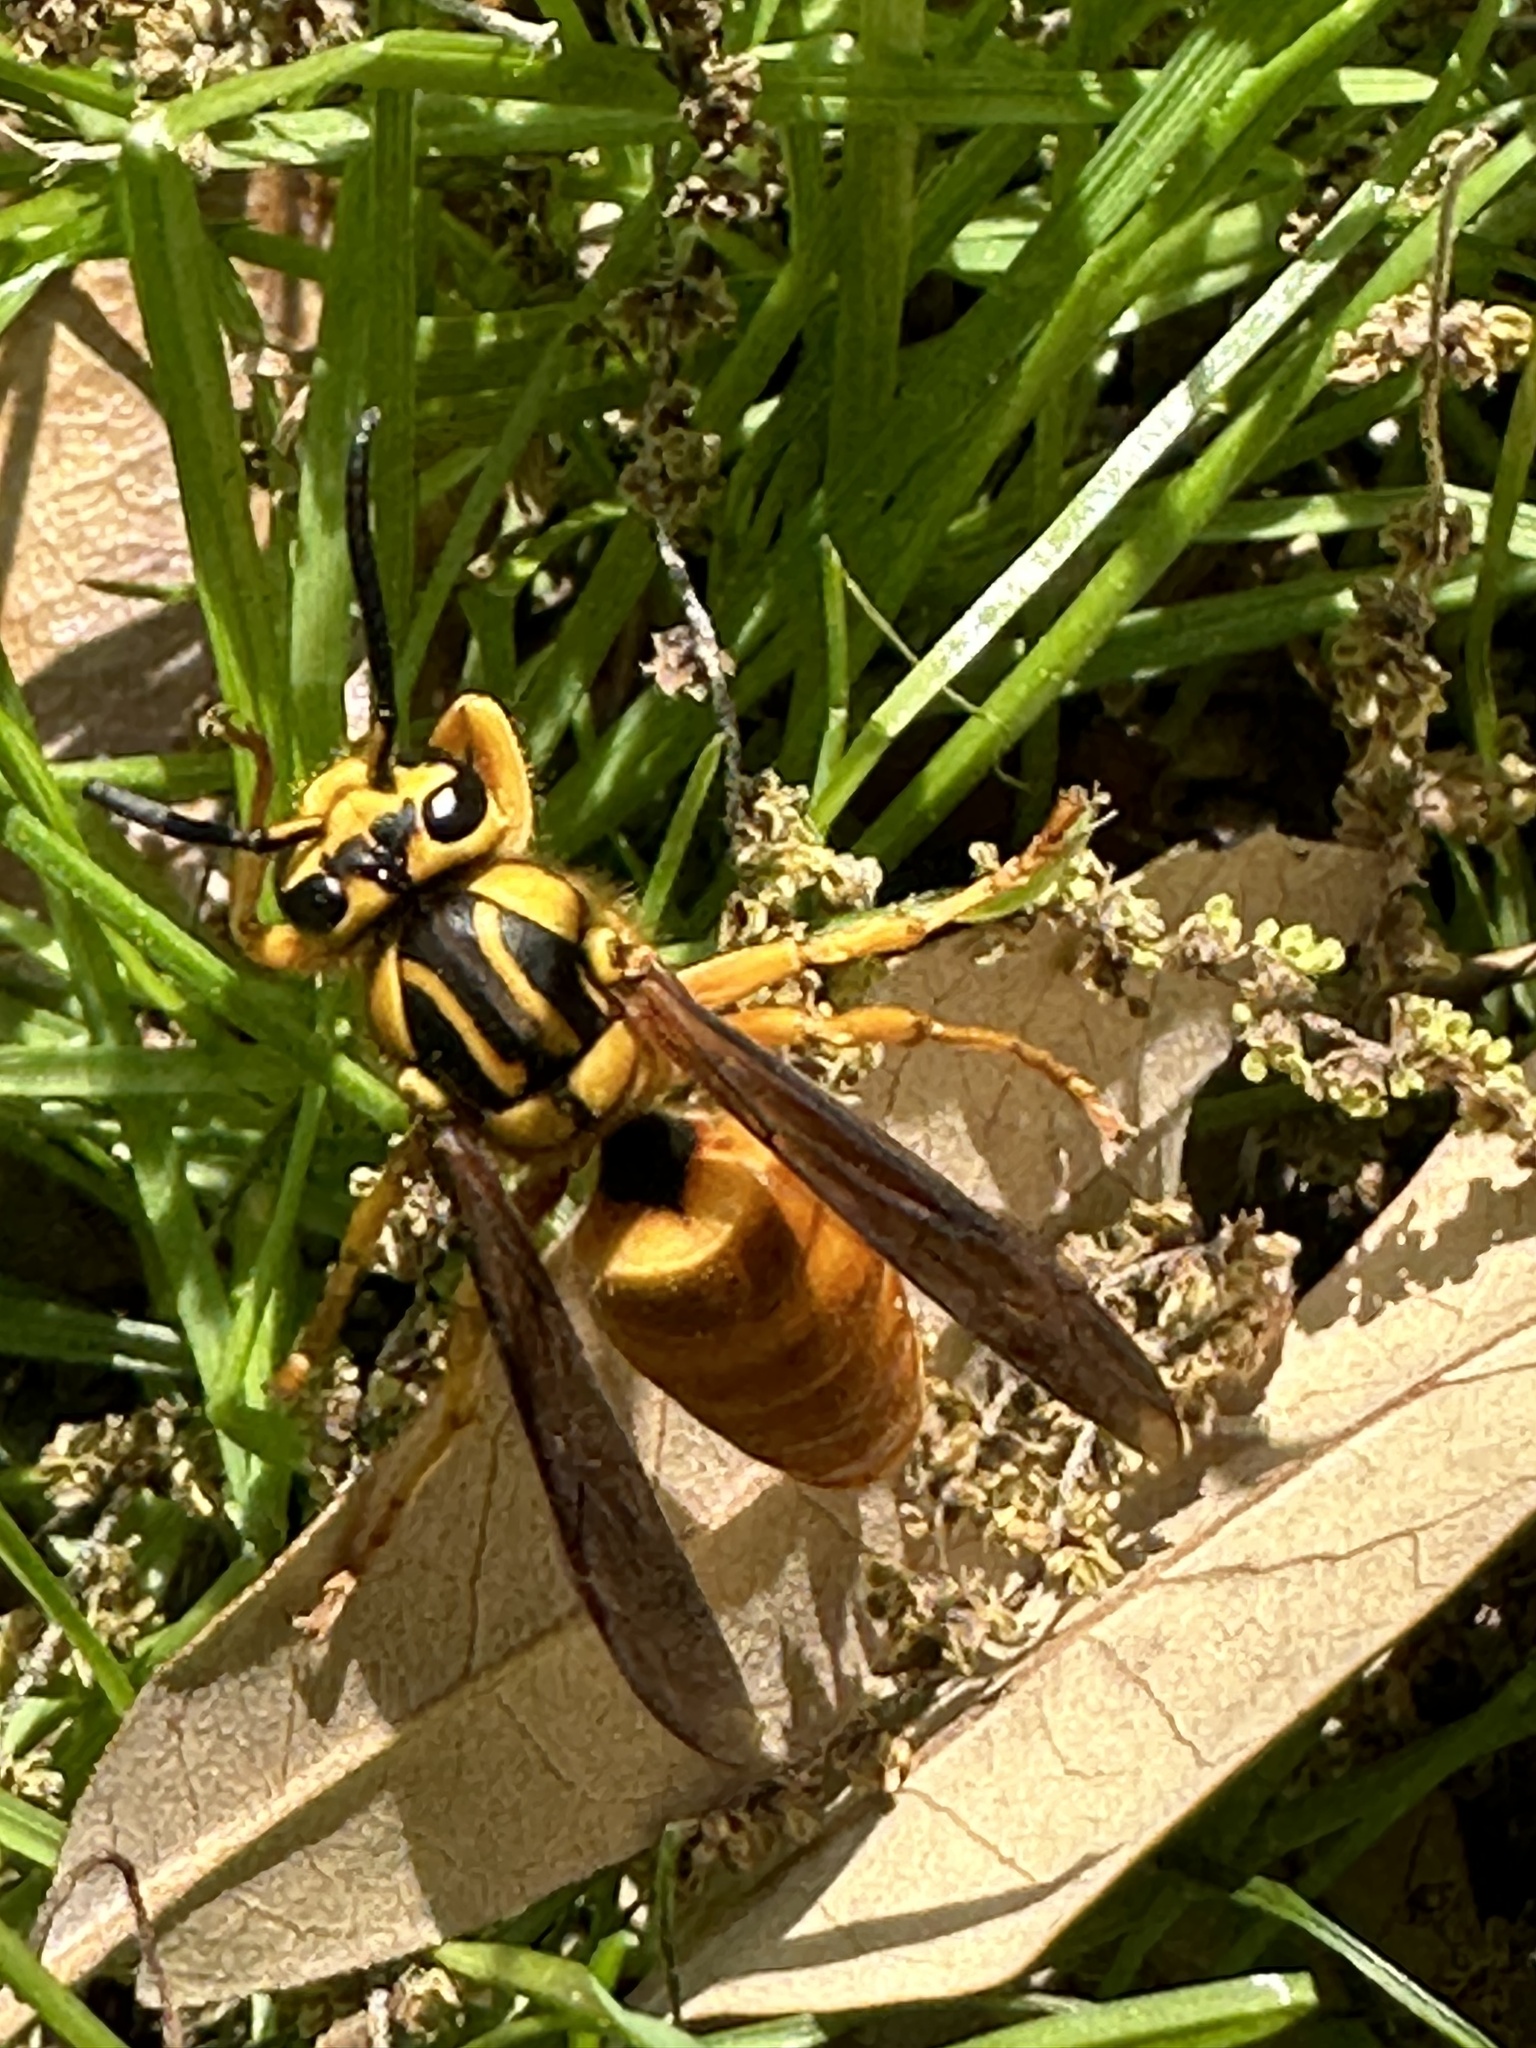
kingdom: Animalia
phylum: Arthropoda
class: Insecta
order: Hymenoptera
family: Vespidae
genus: Vespula
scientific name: Vespula squamosa
